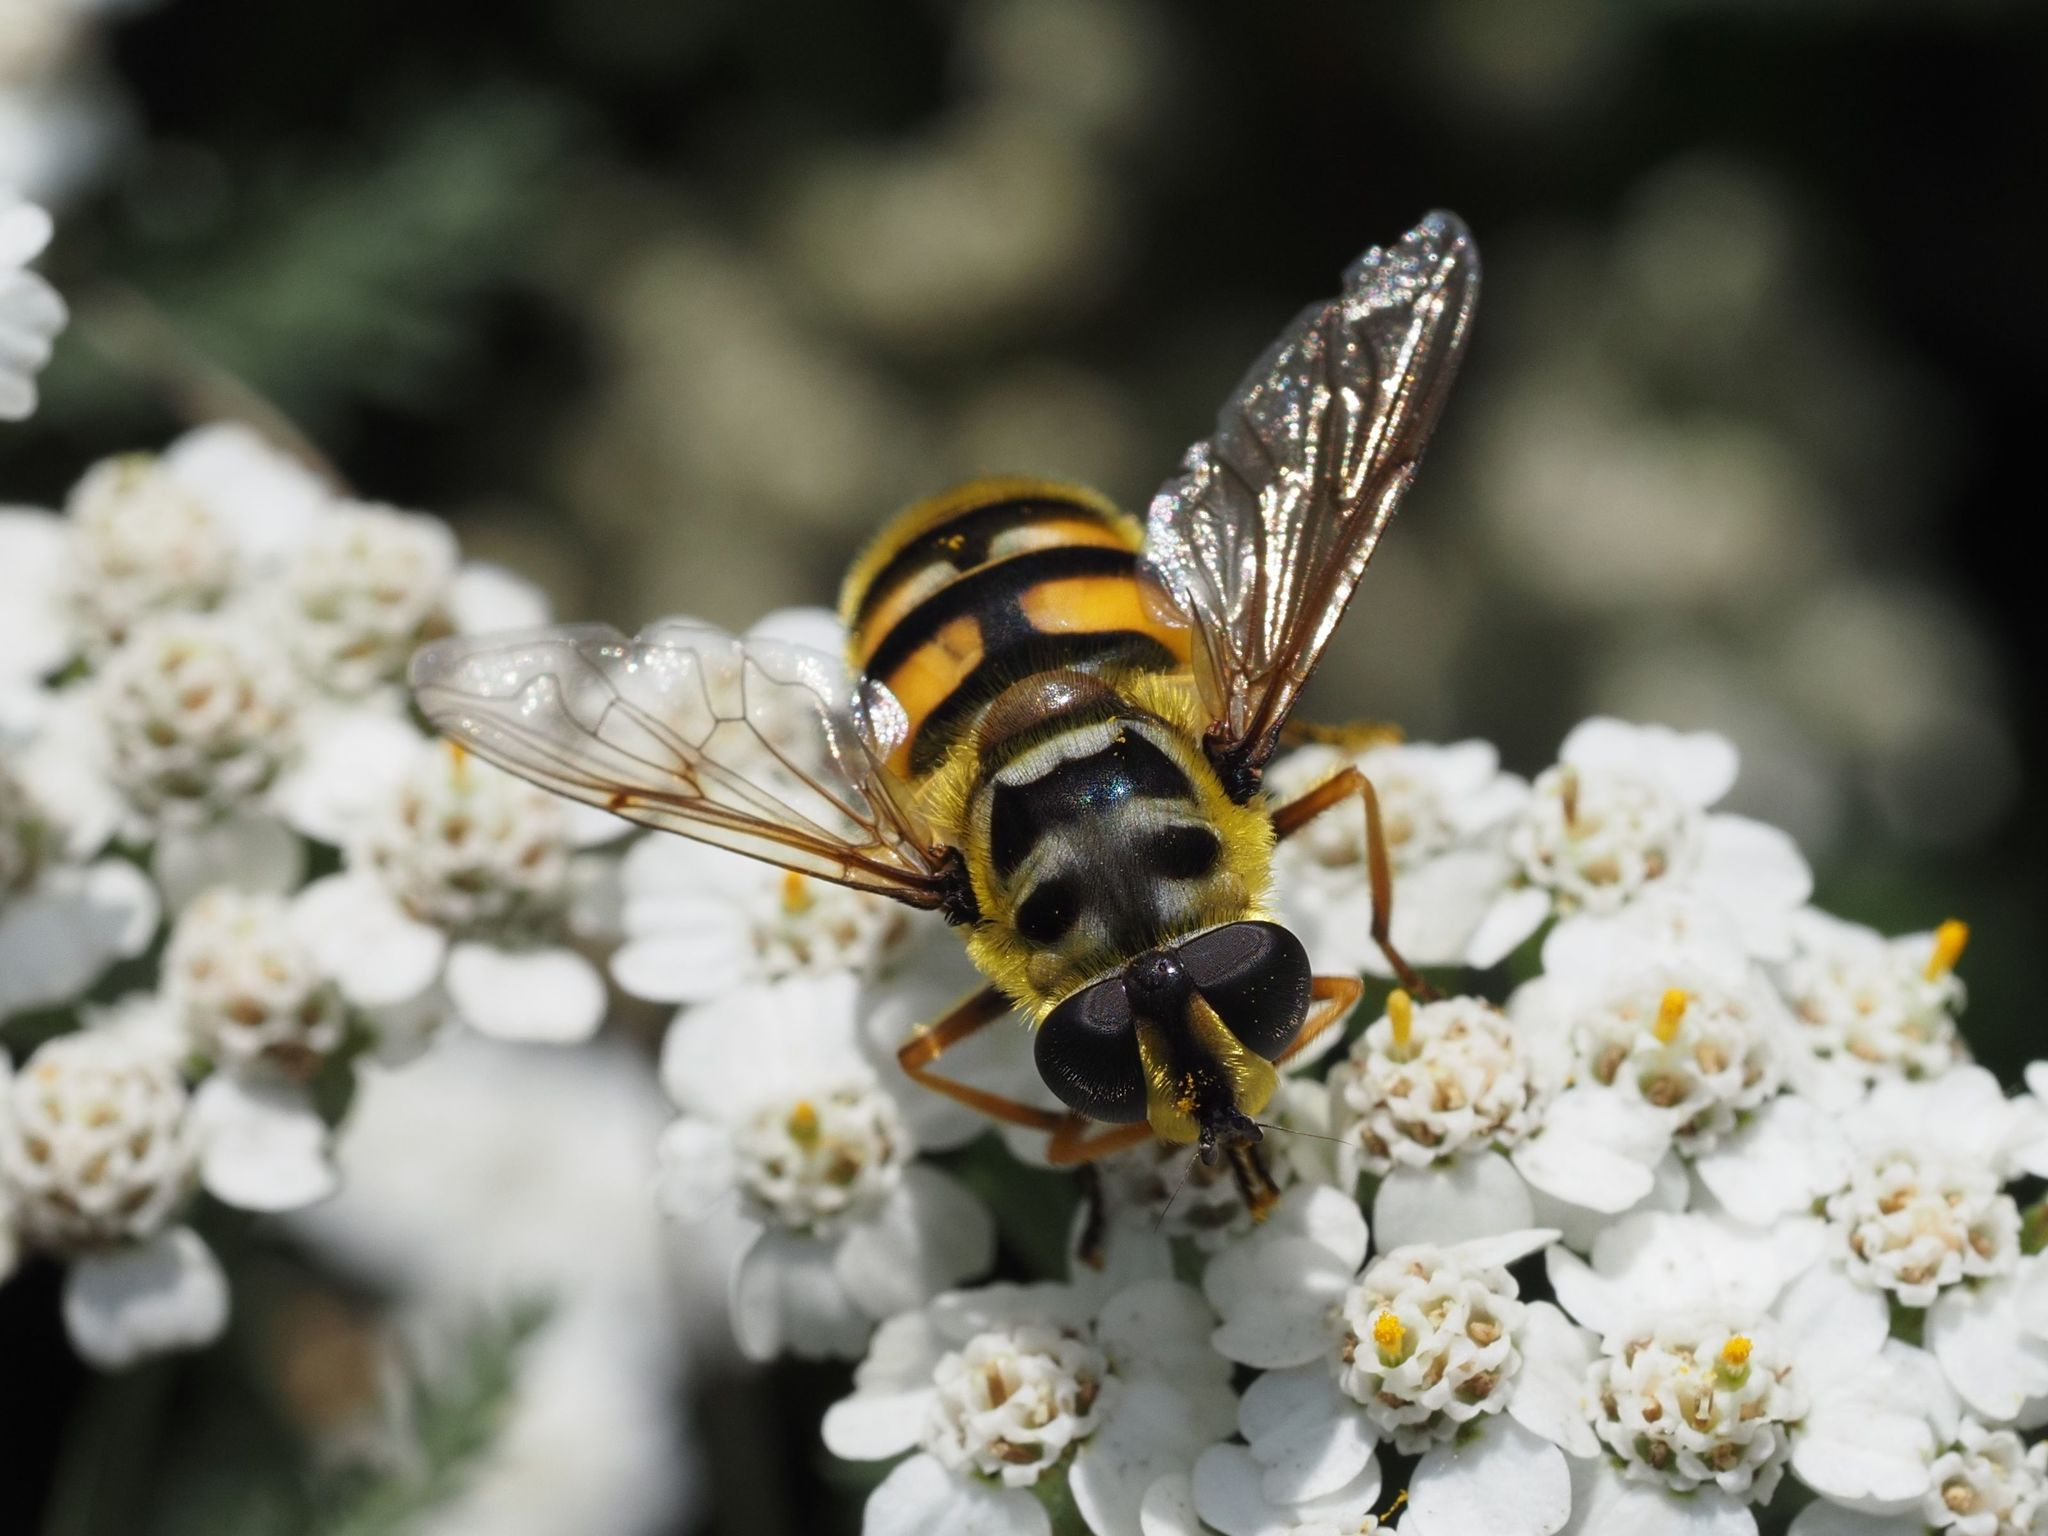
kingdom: Animalia
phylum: Arthropoda
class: Insecta
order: Diptera
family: Syrphidae
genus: Myathropa
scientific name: Myathropa florea
